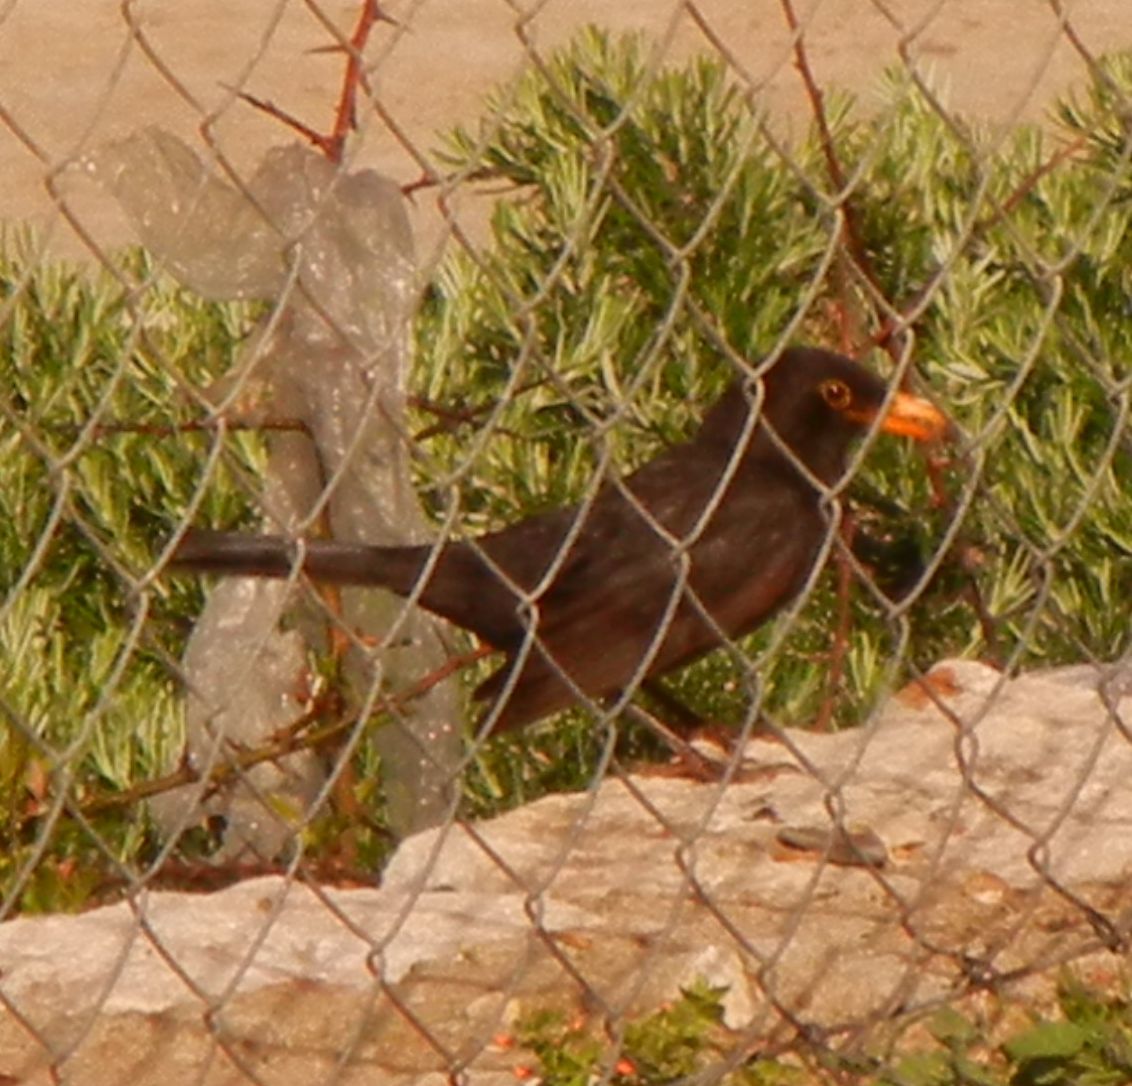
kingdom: Animalia
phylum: Chordata
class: Aves
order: Passeriformes
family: Turdidae
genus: Turdus
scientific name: Turdus merula
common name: Common blackbird
